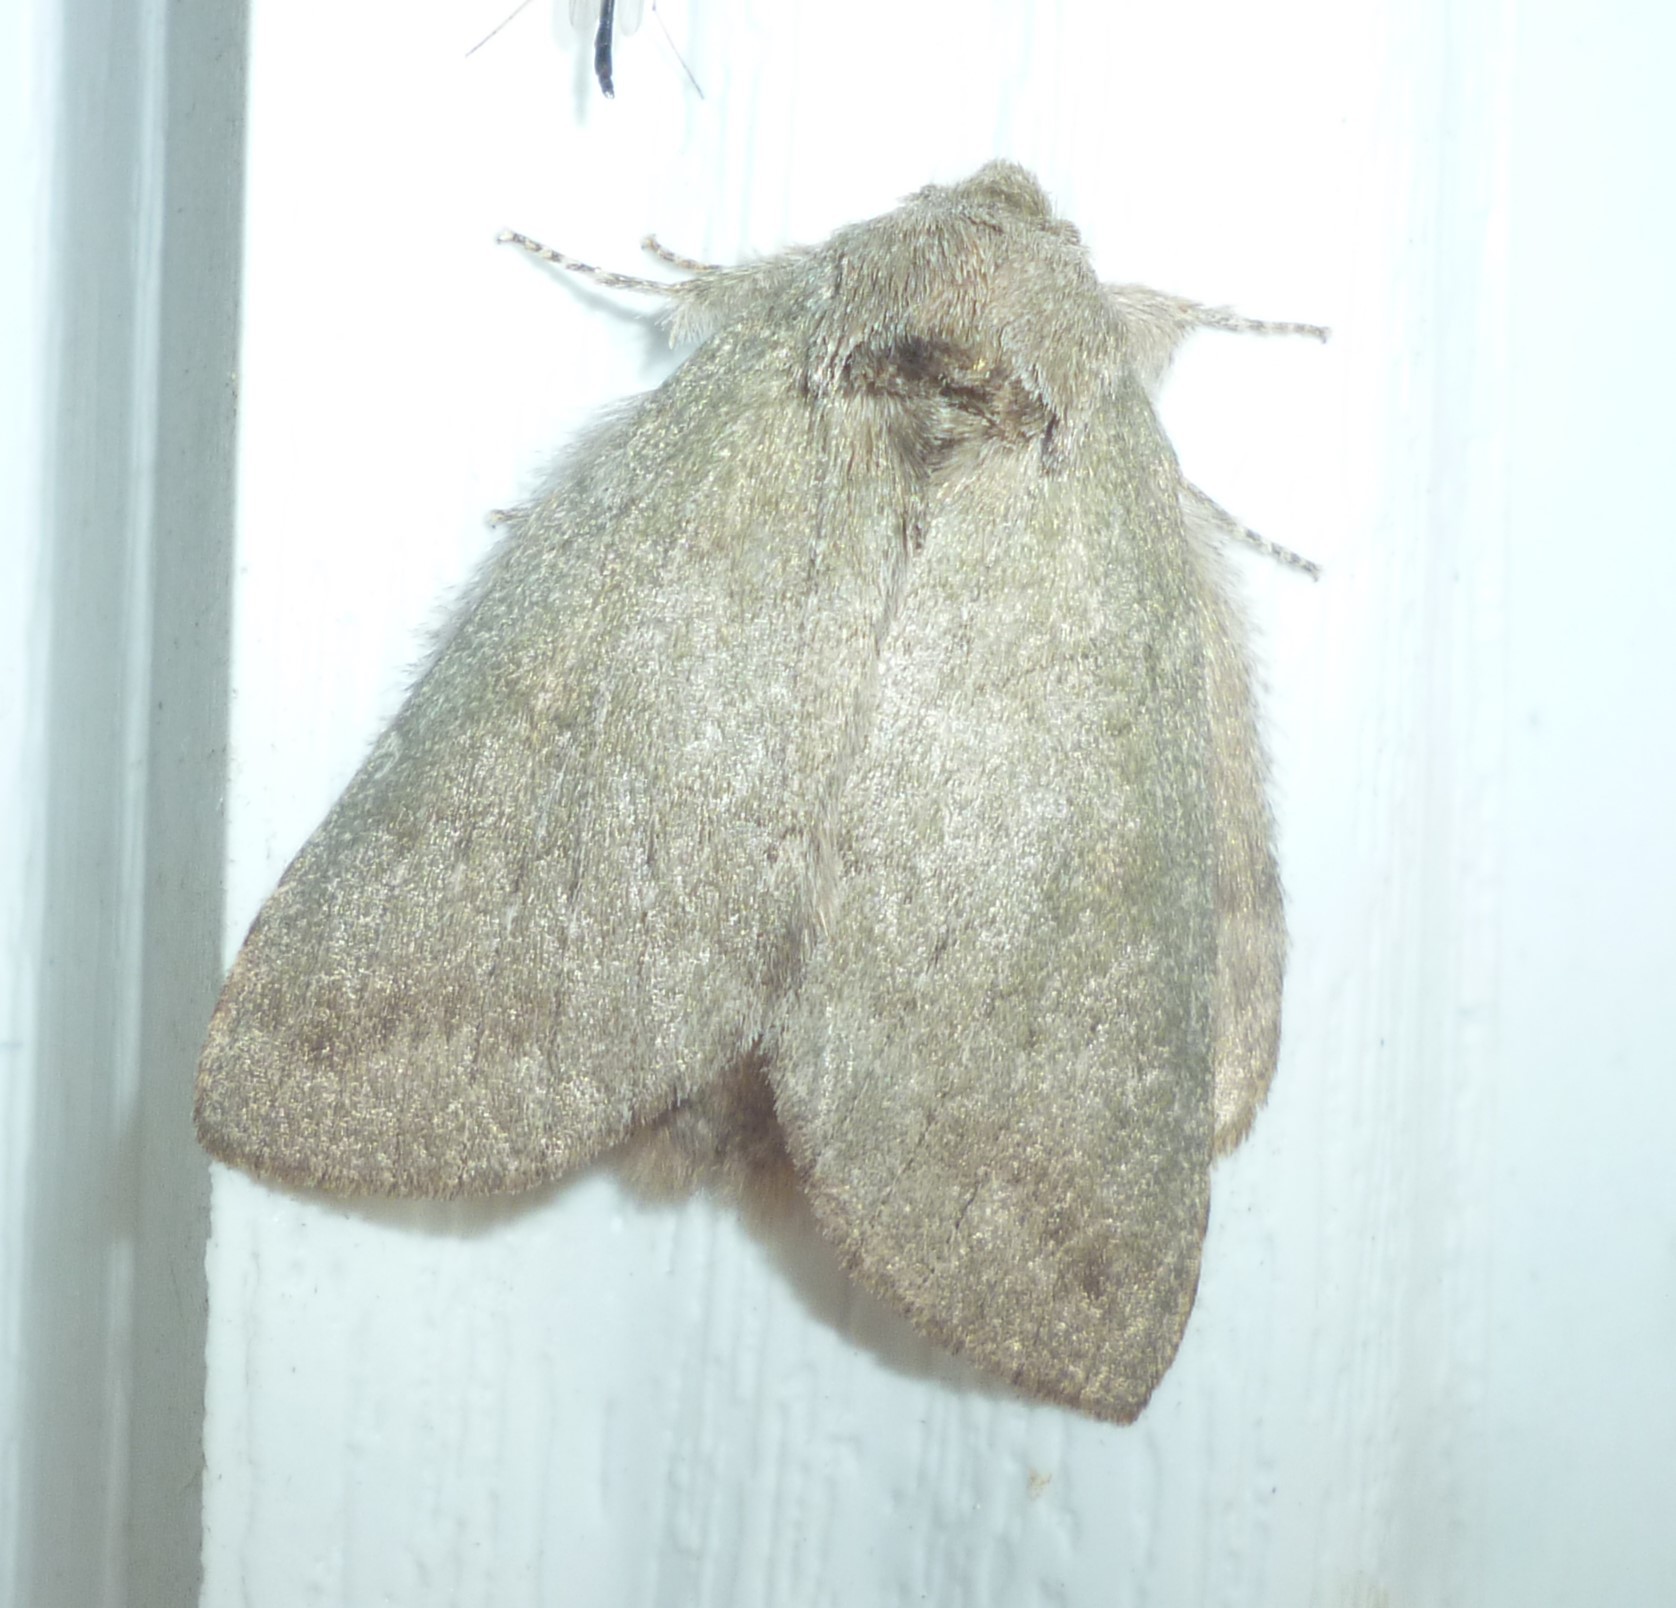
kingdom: Animalia
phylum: Arthropoda
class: Insecta
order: Lepidoptera
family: Notodontidae
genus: Misogada
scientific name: Misogada unicolor
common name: Drab prominent
